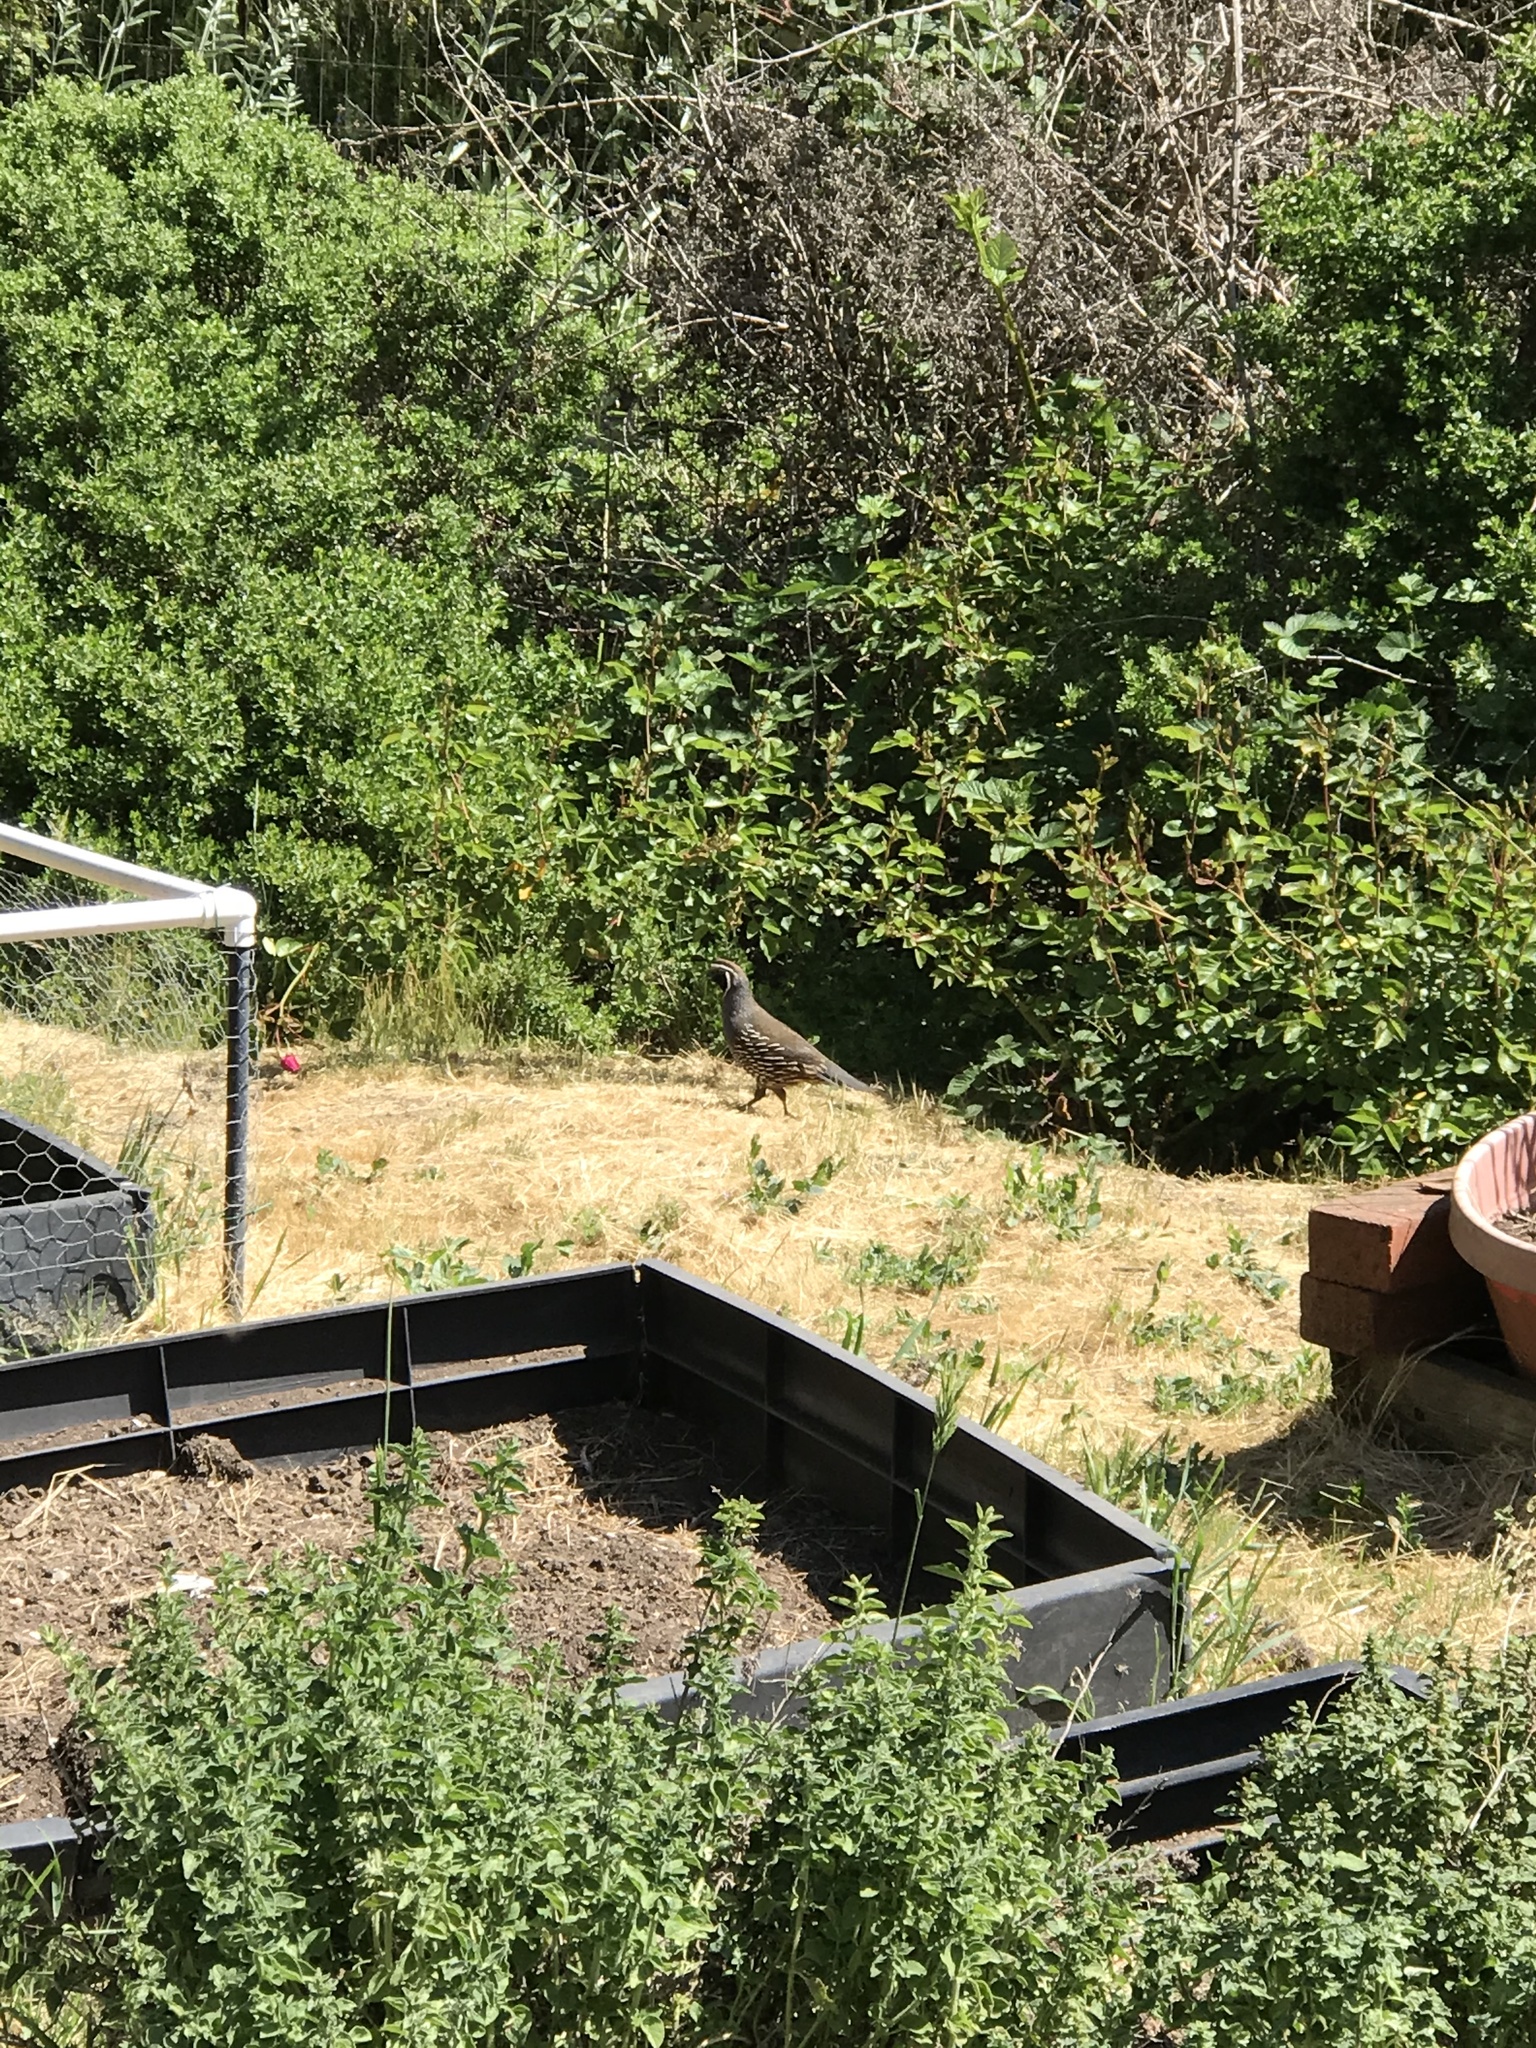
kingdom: Animalia
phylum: Chordata
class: Aves
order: Galliformes
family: Odontophoridae
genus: Callipepla
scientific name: Callipepla californica
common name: California quail
